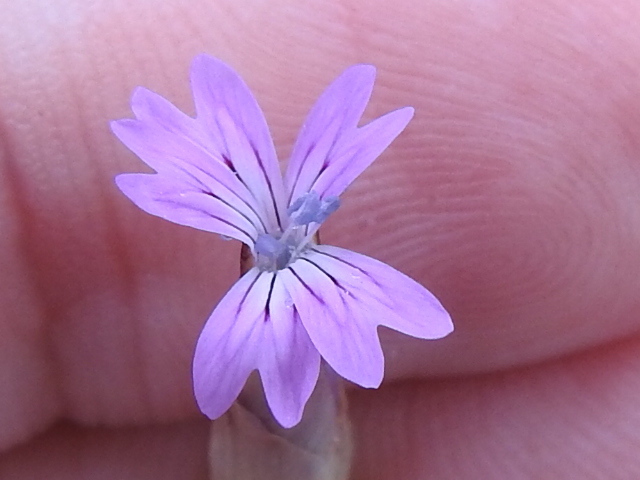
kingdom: Plantae
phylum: Tracheophyta
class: Magnoliopsida
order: Caryophyllales
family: Caryophyllaceae
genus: Petrorhagia
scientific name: Petrorhagia dubia
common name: Hairypink
